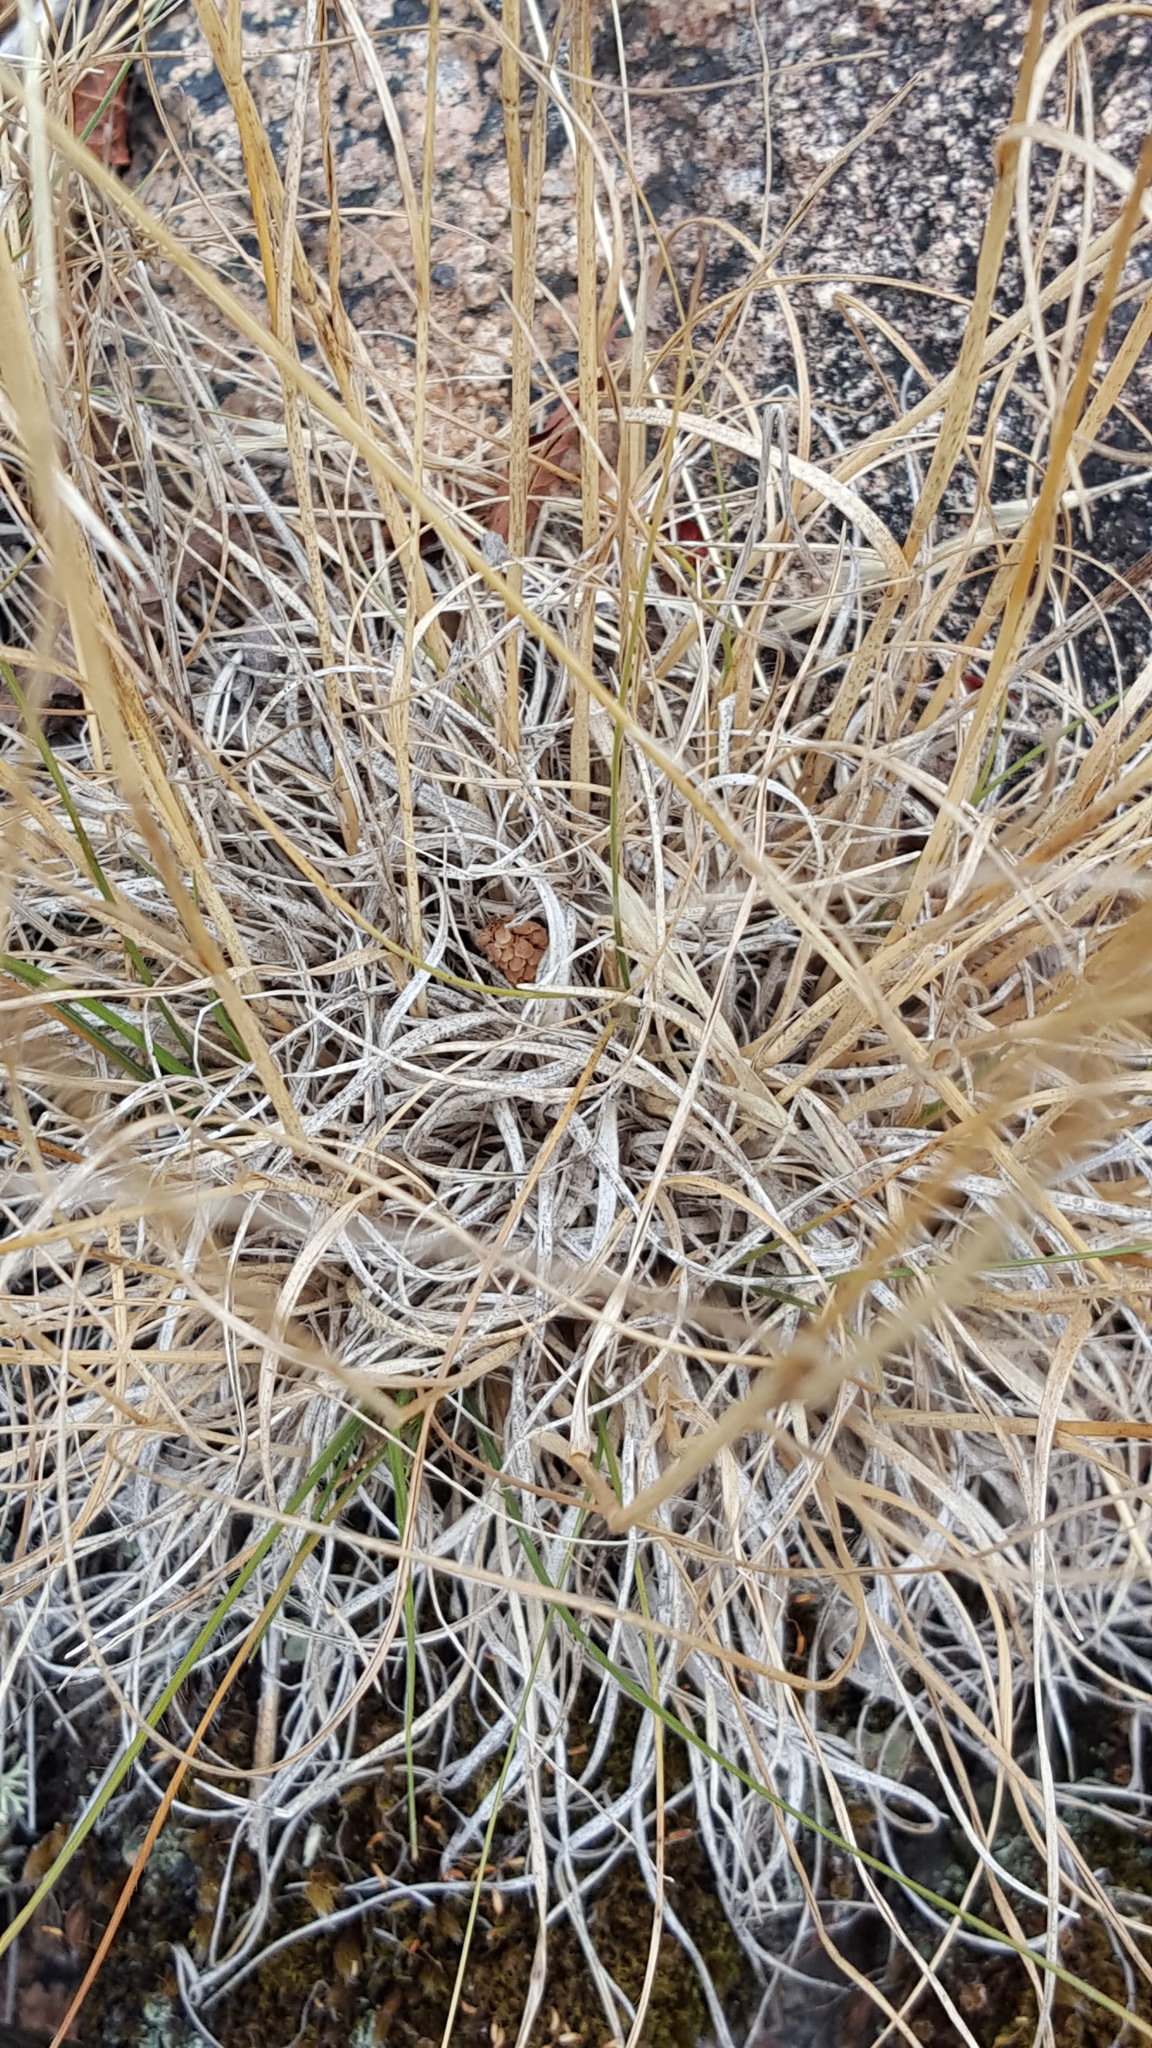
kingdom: Plantae
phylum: Tracheophyta
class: Liliopsida
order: Poales
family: Poaceae
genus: Danthonia
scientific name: Danthonia spicata
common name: Common wild oatgrass
